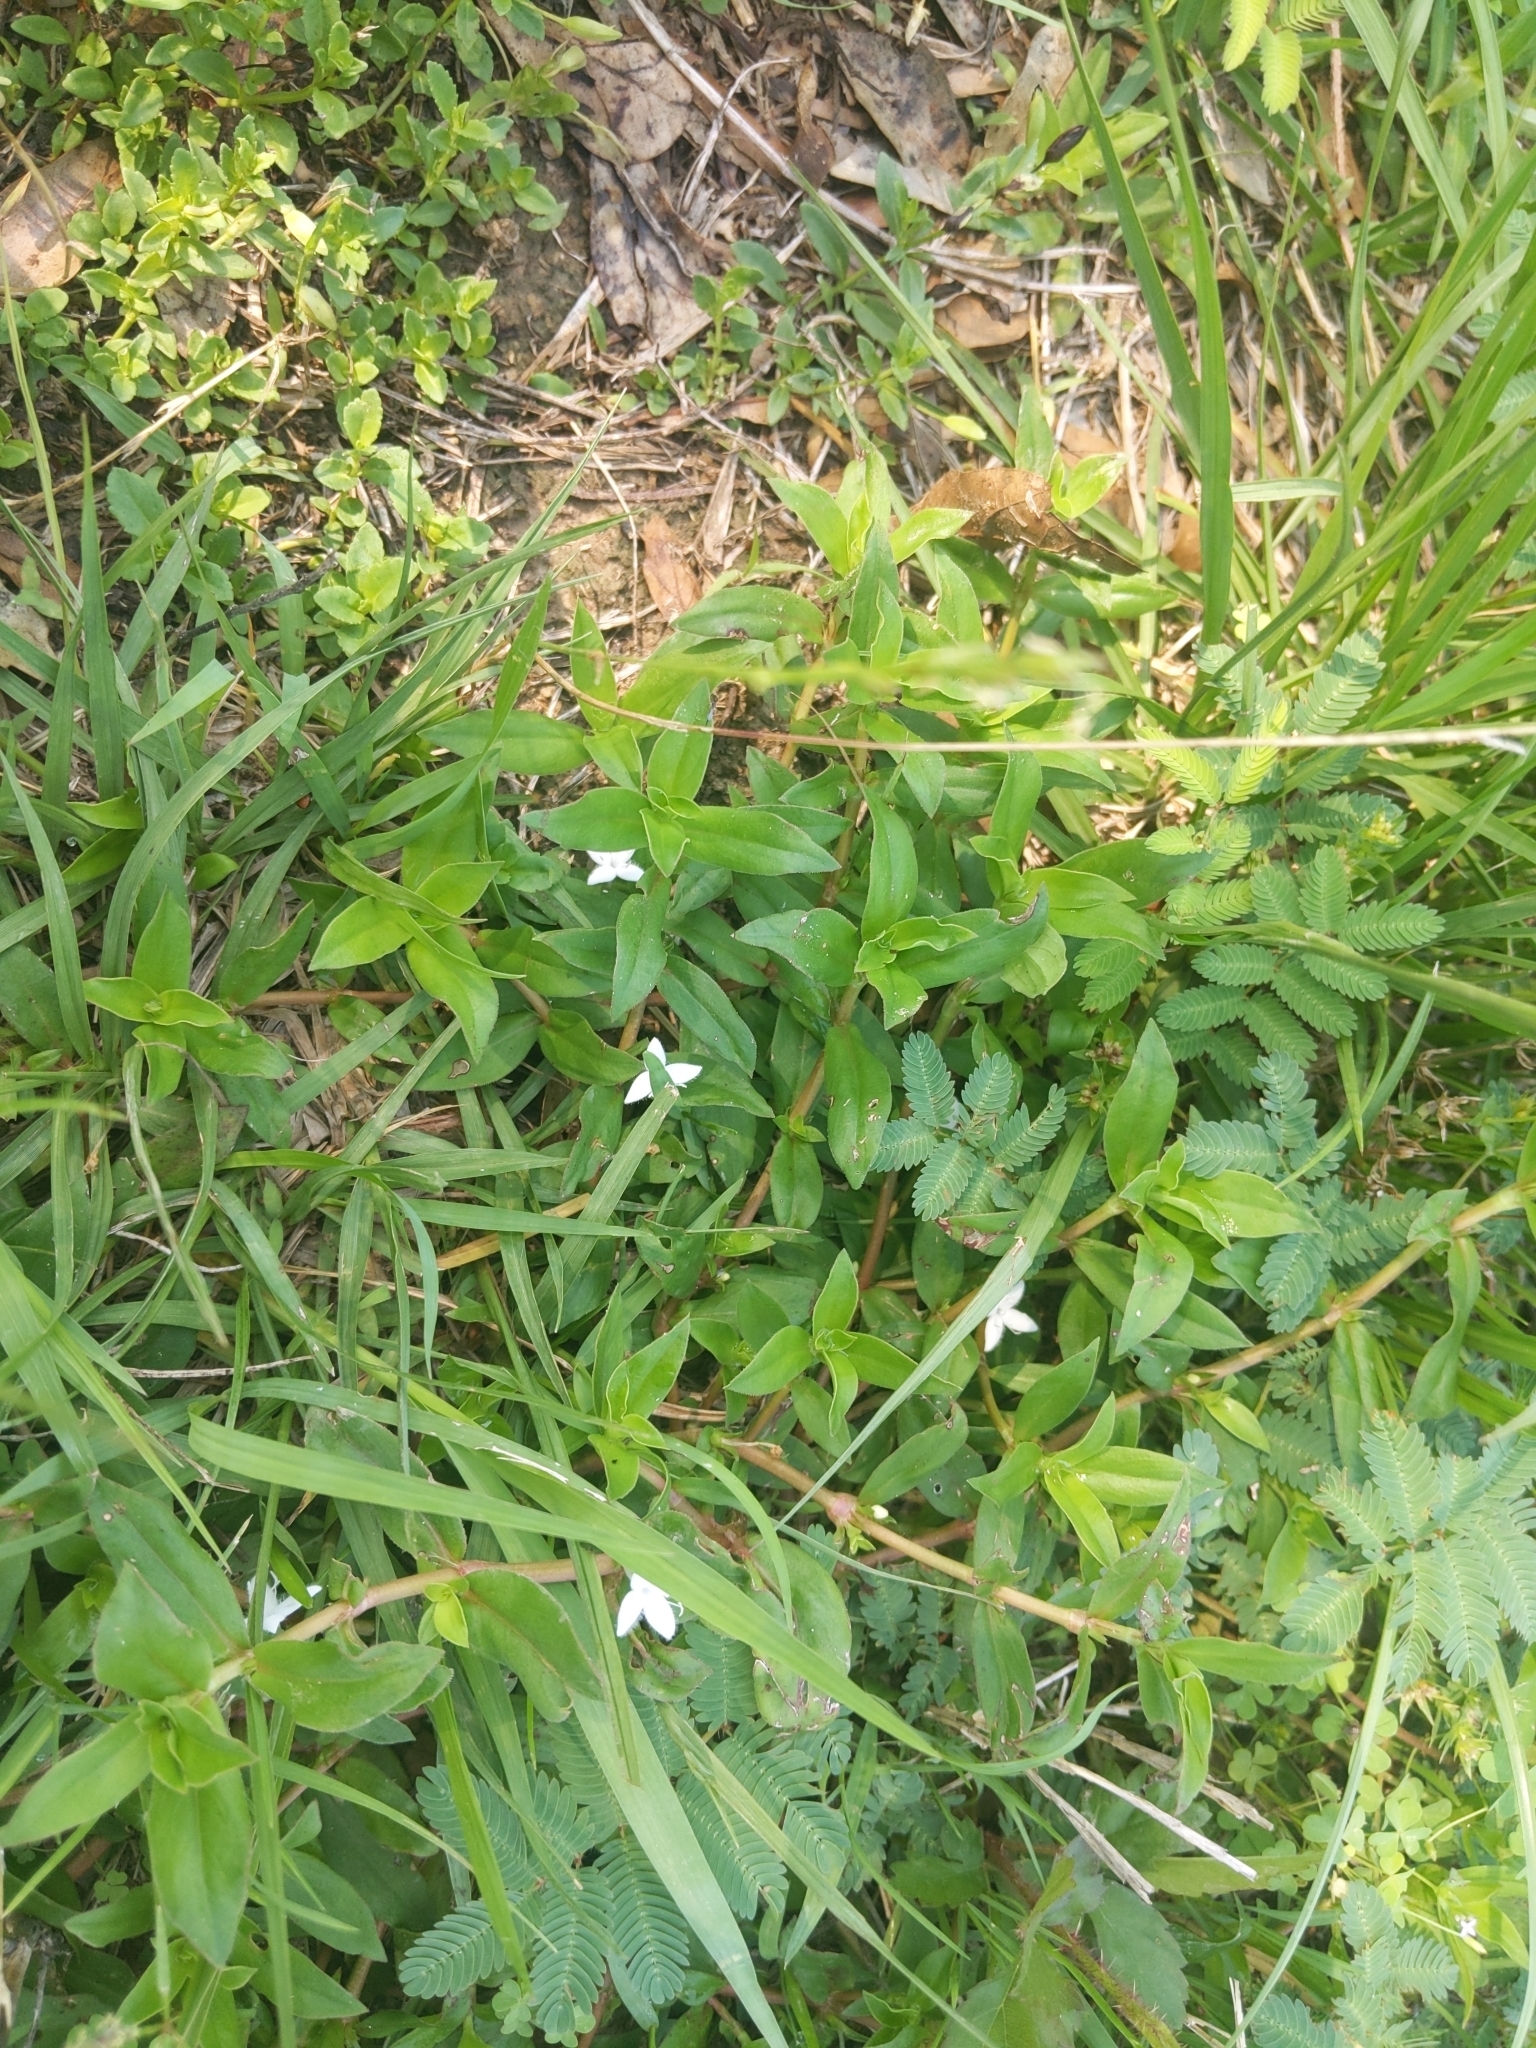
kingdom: Plantae
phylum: Tracheophyta
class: Magnoliopsida
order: Gentianales
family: Rubiaceae
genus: Diodia
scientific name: Diodia virginiana
